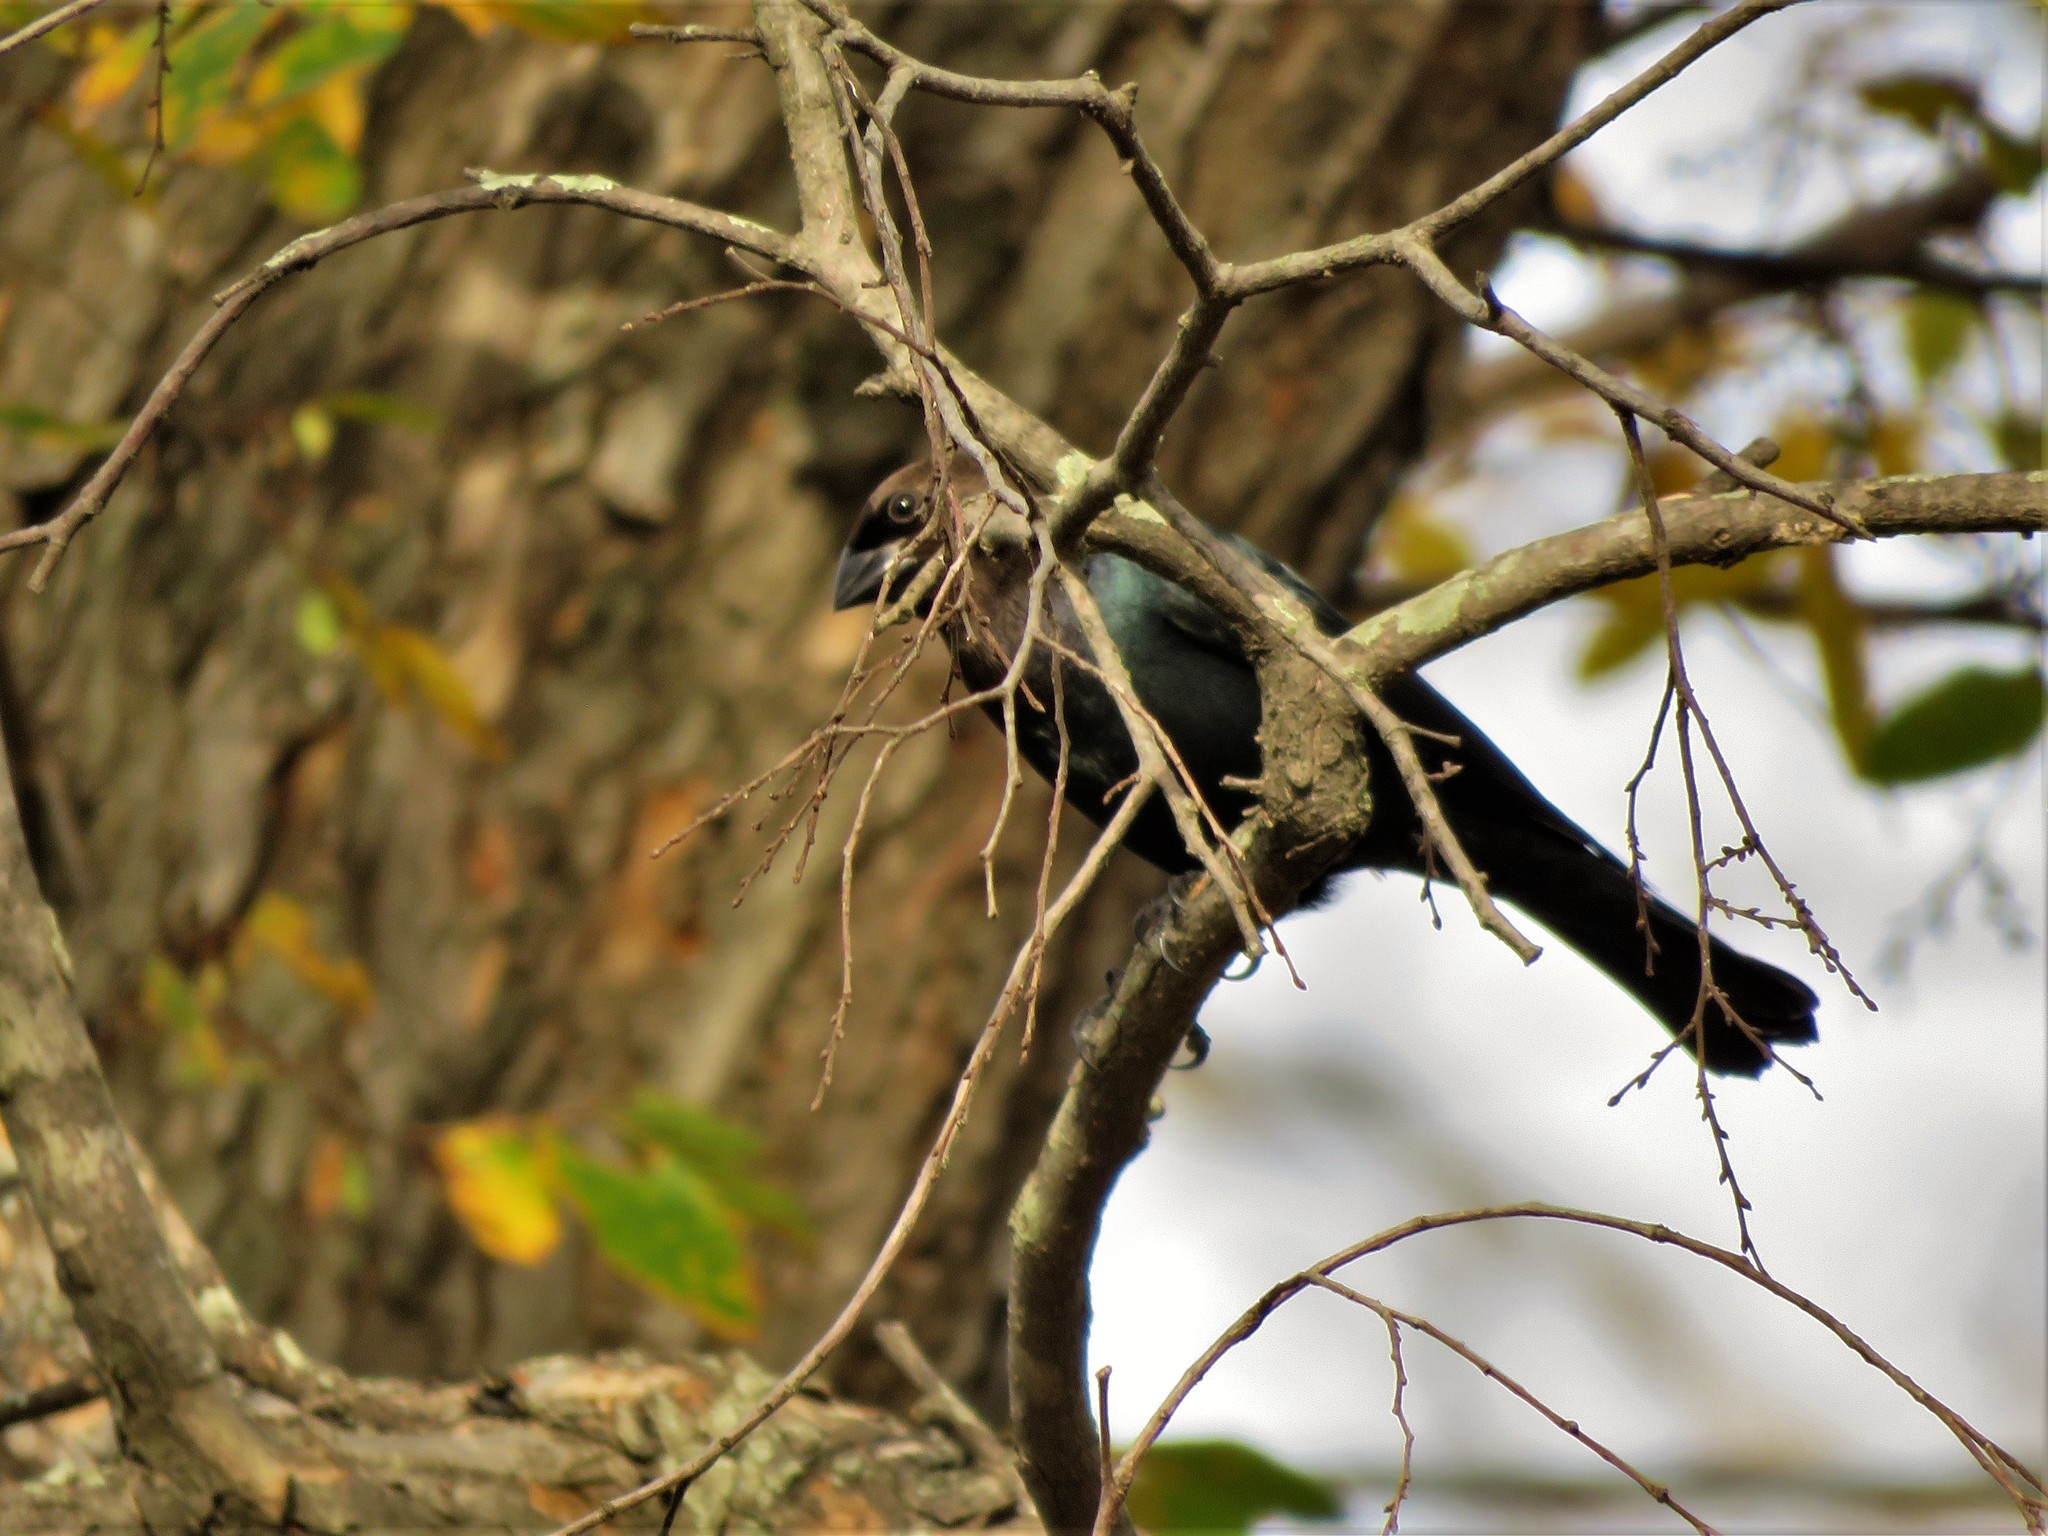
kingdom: Animalia
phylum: Chordata
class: Aves
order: Passeriformes
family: Icteridae
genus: Molothrus
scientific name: Molothrus ater
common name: Brown-headed cowbird
